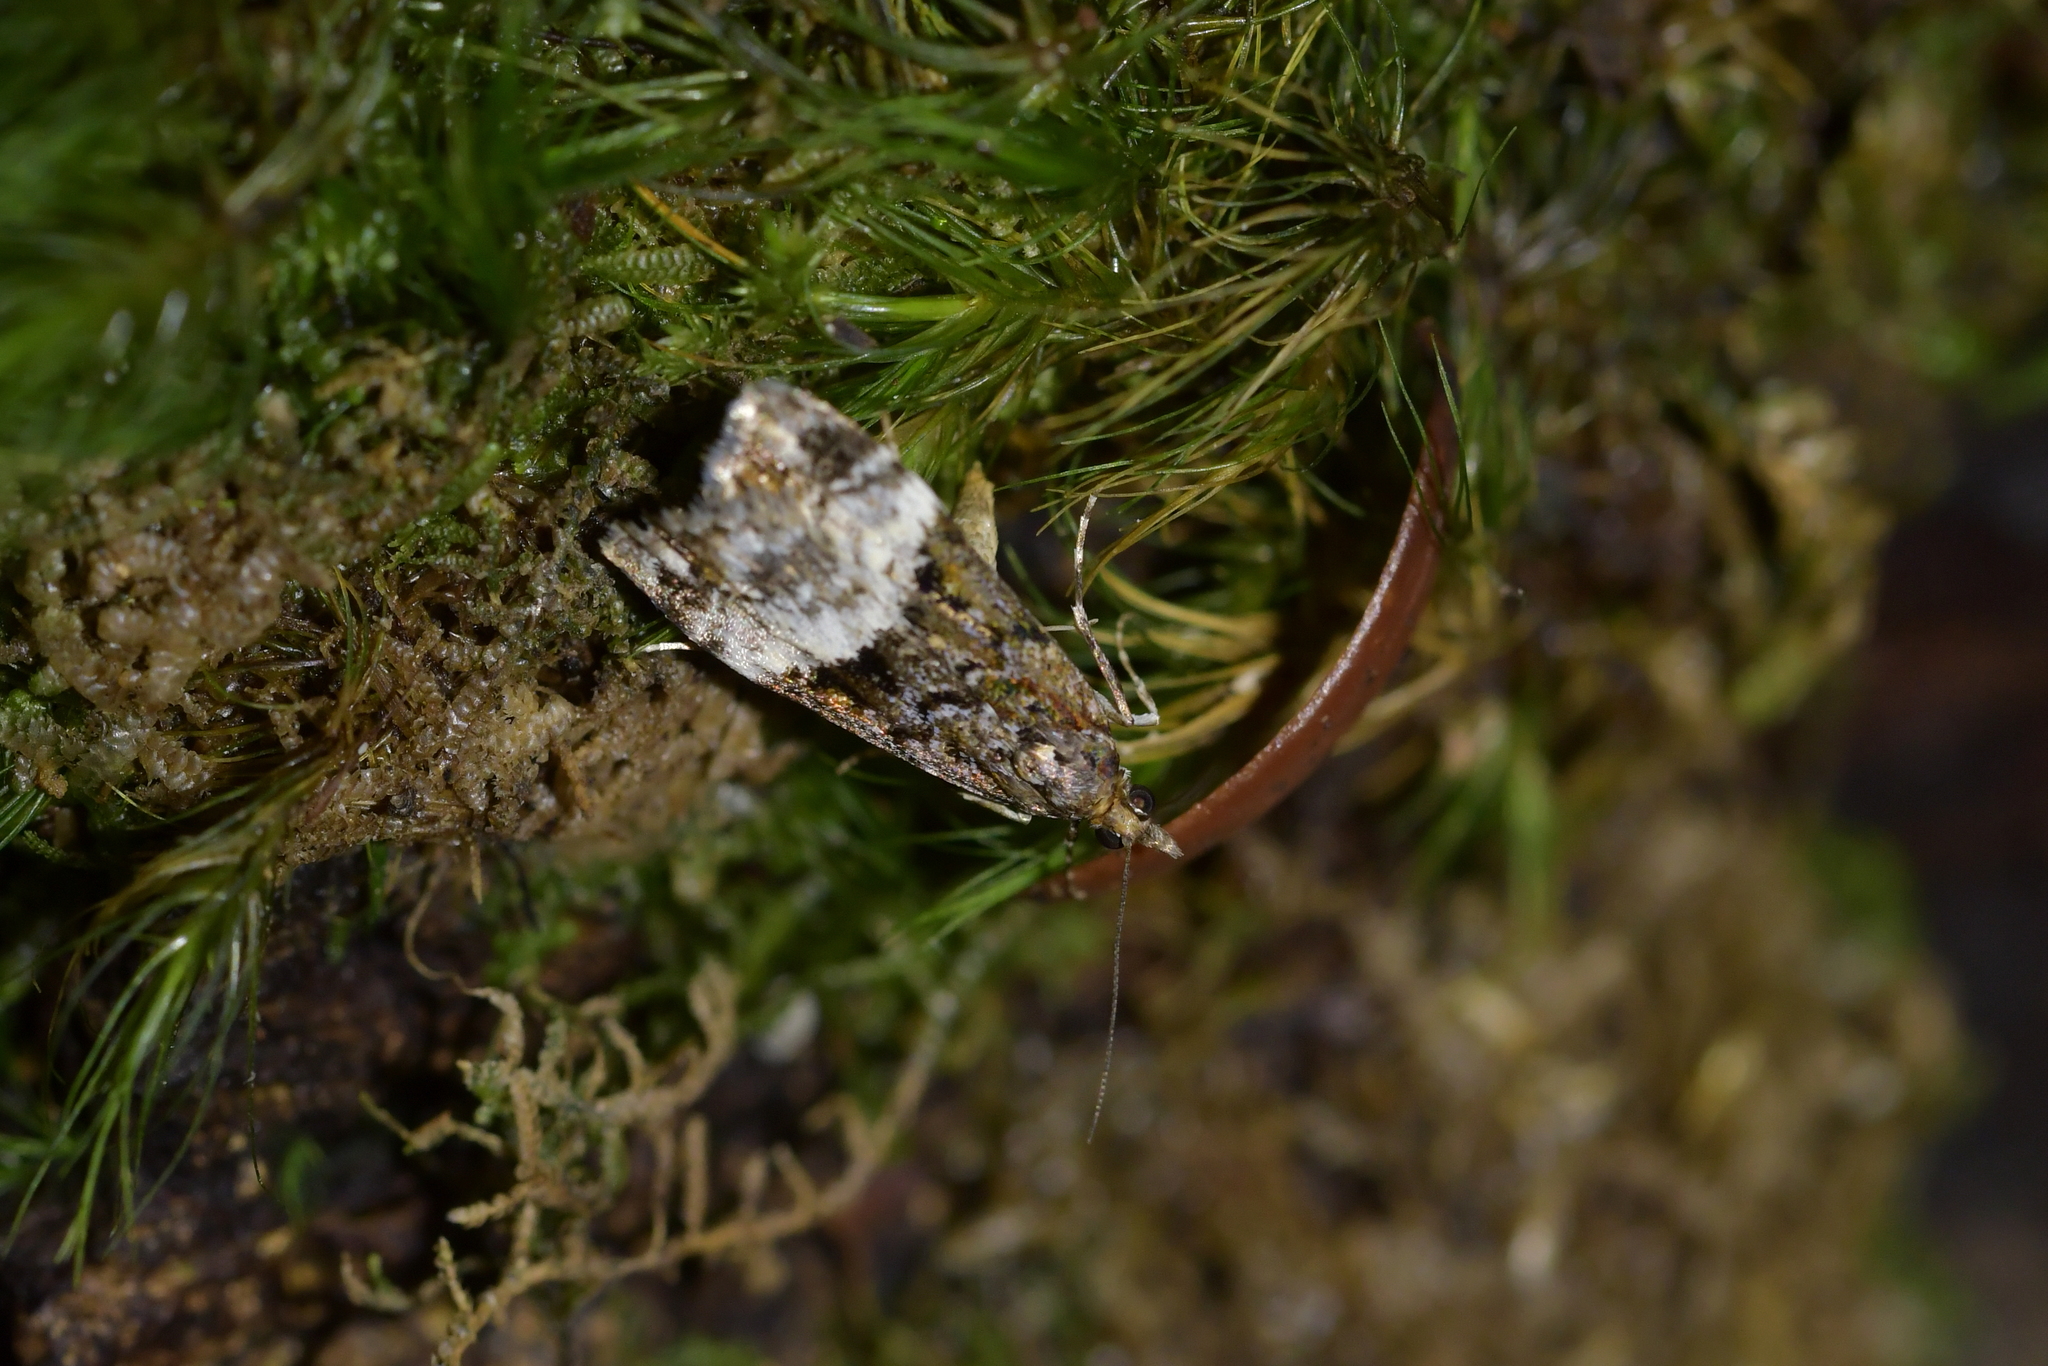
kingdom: Animalia
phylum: Arthropoda
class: Insecta
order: Lepidoptera
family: Crambidae
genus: Scoparia
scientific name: Scoparia minusculalis
